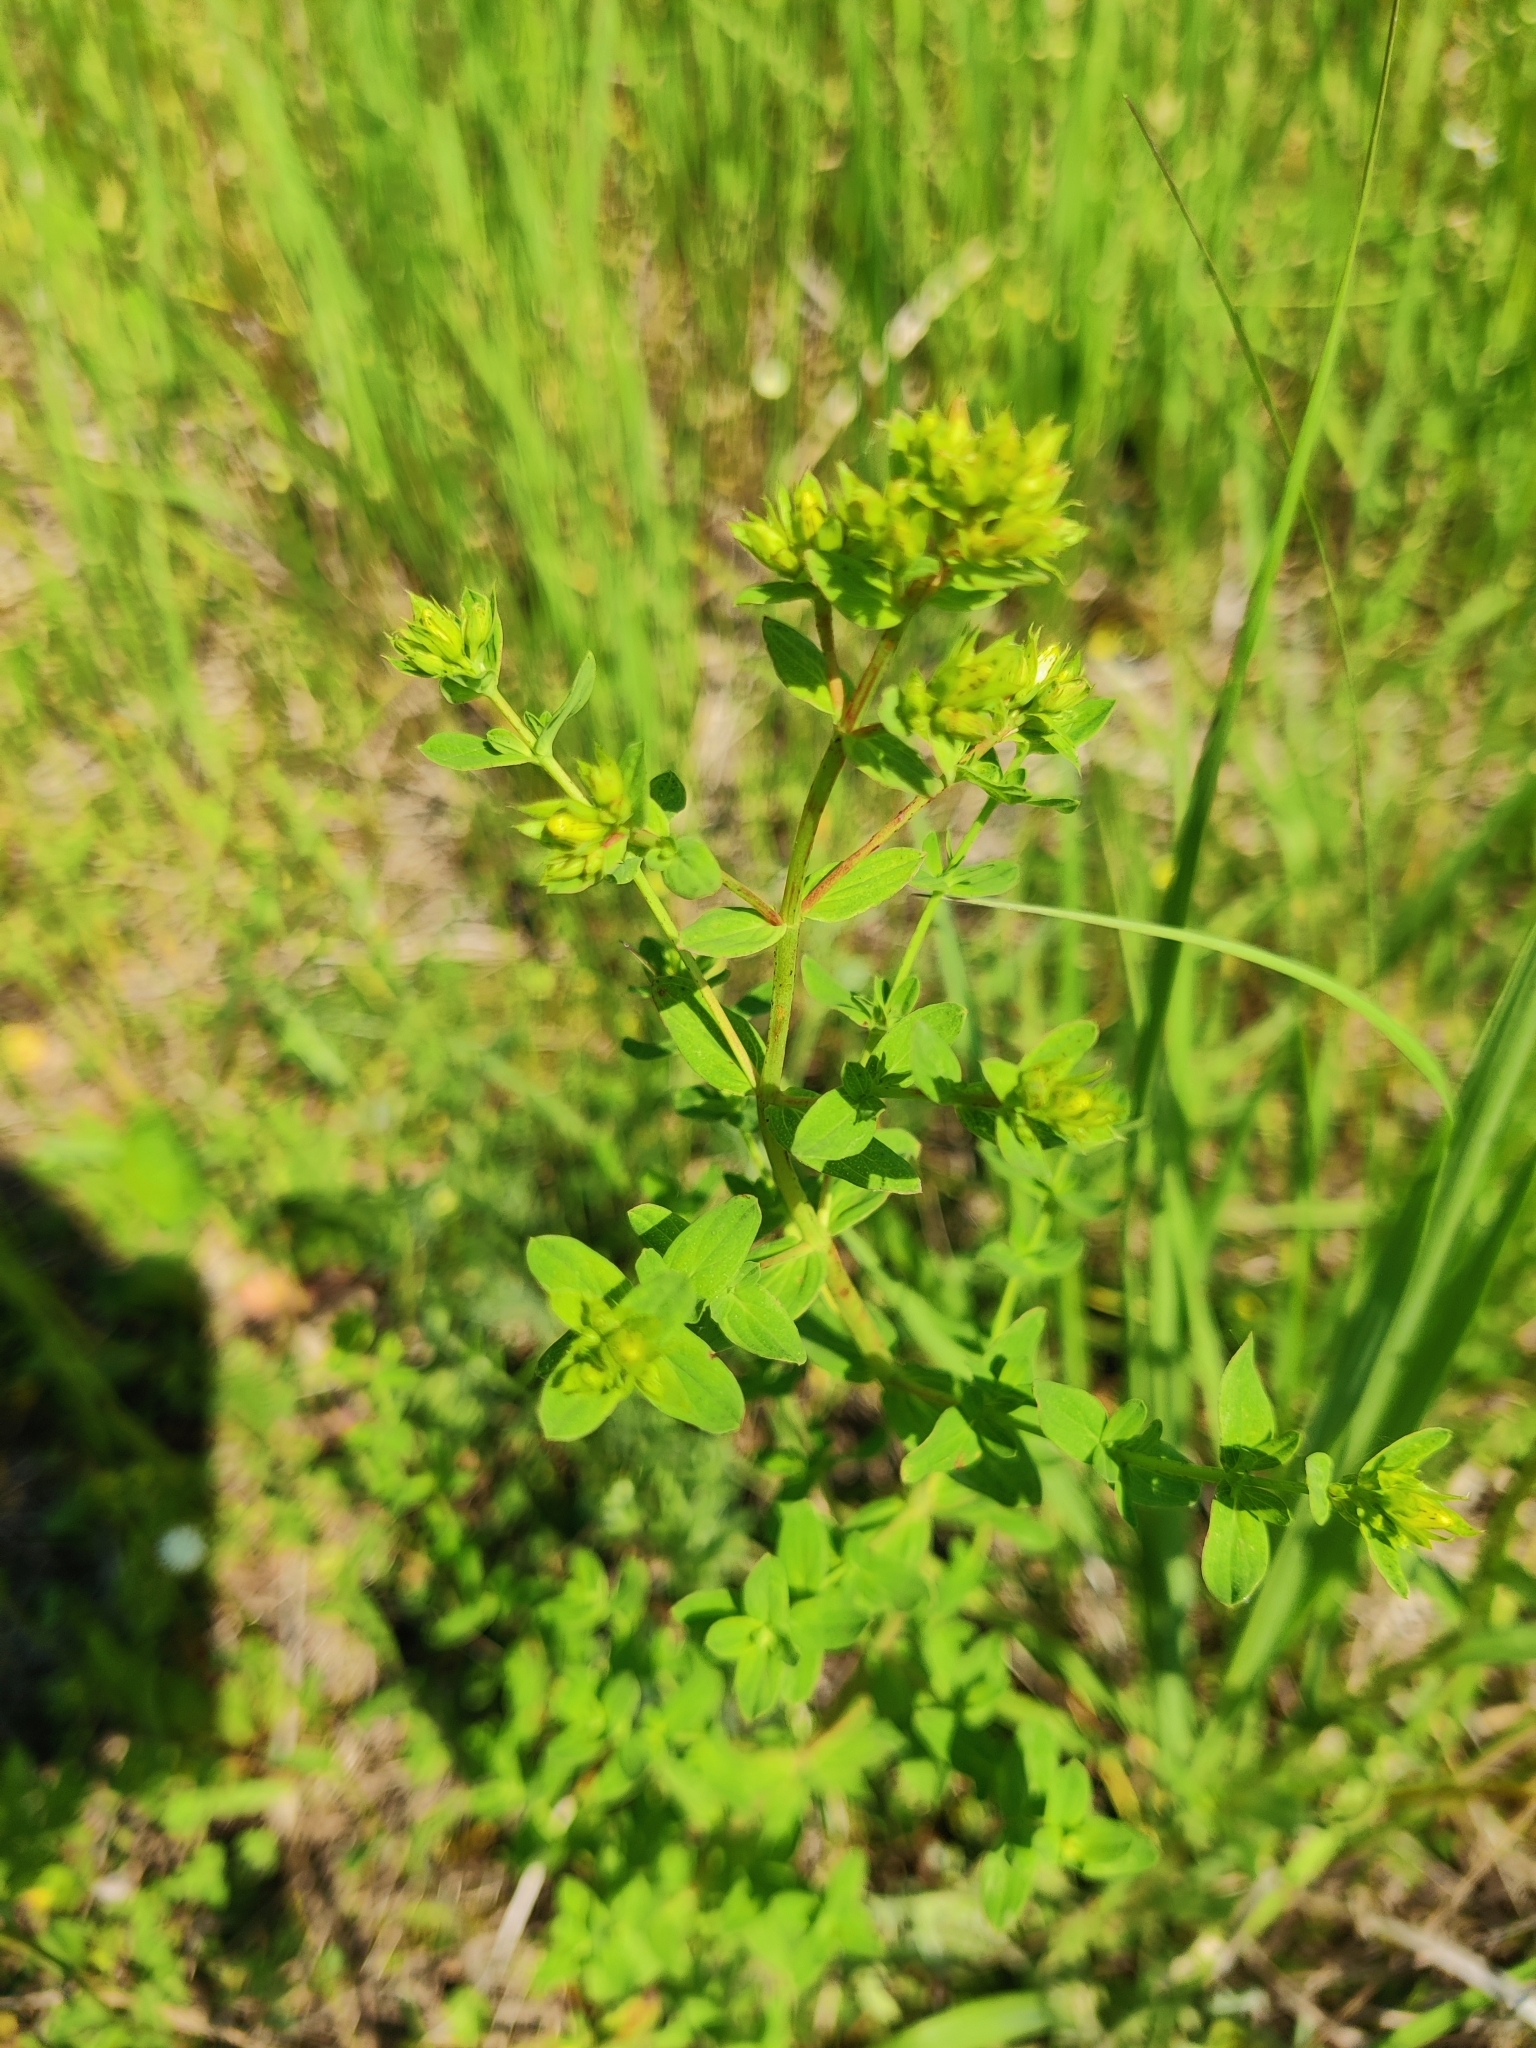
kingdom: Plantae
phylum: Tracheophyta
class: Magnoliopsida
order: Malpighiales
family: Hypericaceae
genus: Hypericum
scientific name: Hypericum perforatum
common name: Common st. johnswort
